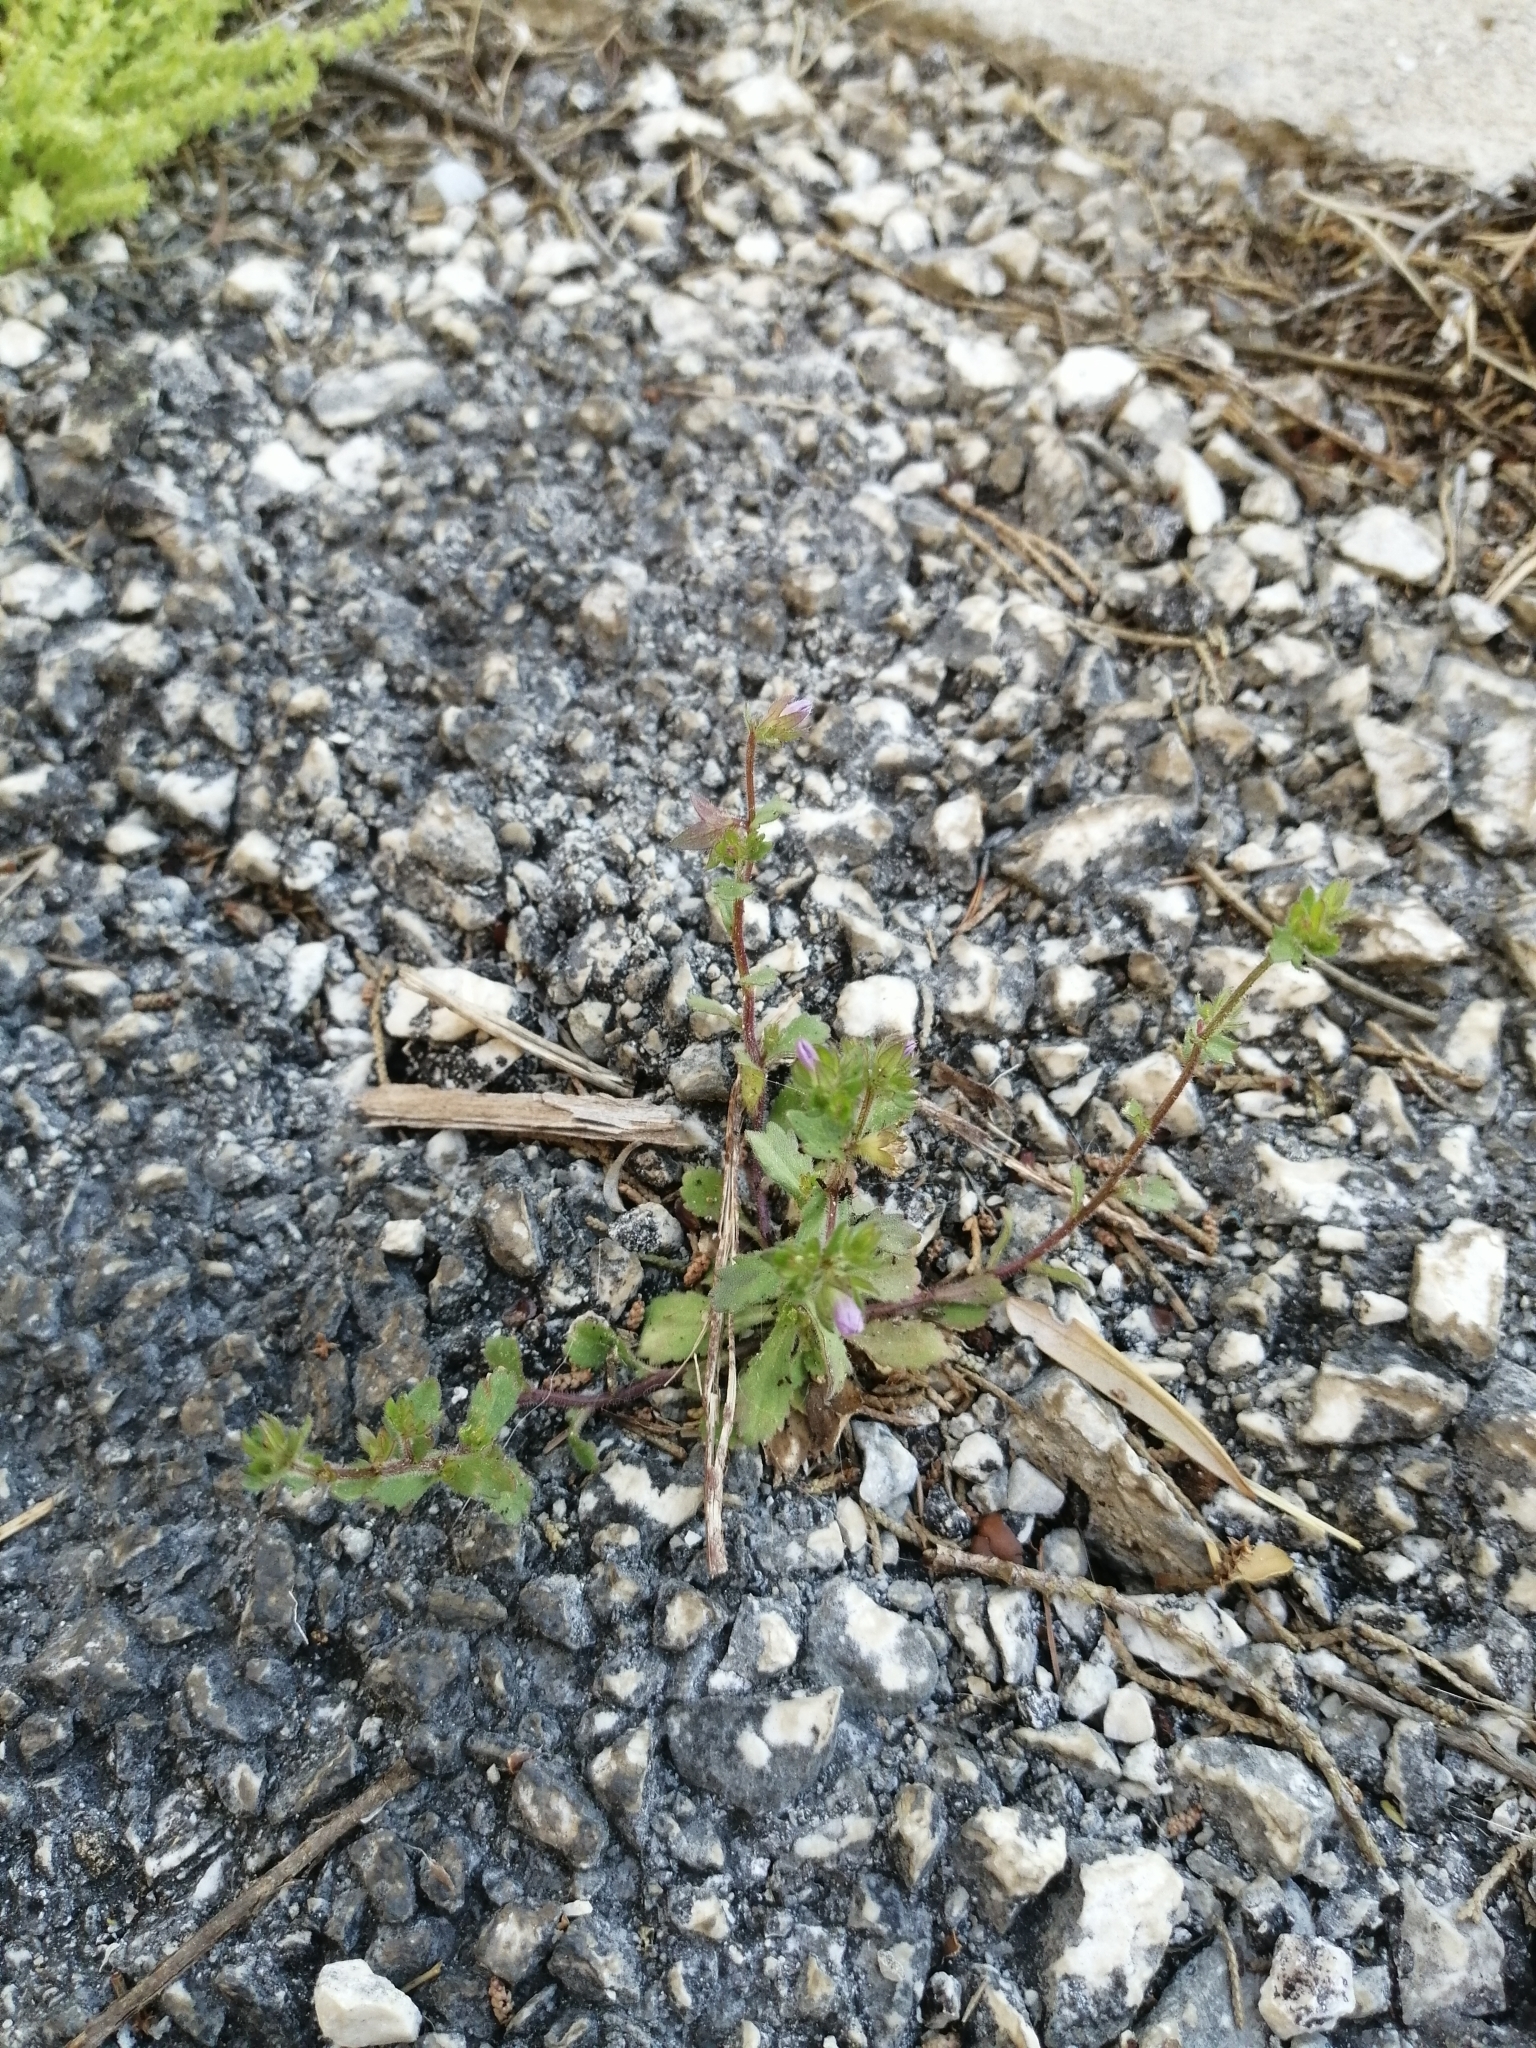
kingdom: Plantae
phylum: Tracheophyta
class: Magnoliopsida
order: Asterales
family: Campanulaceae
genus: Campanula
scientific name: Campanula erinus
